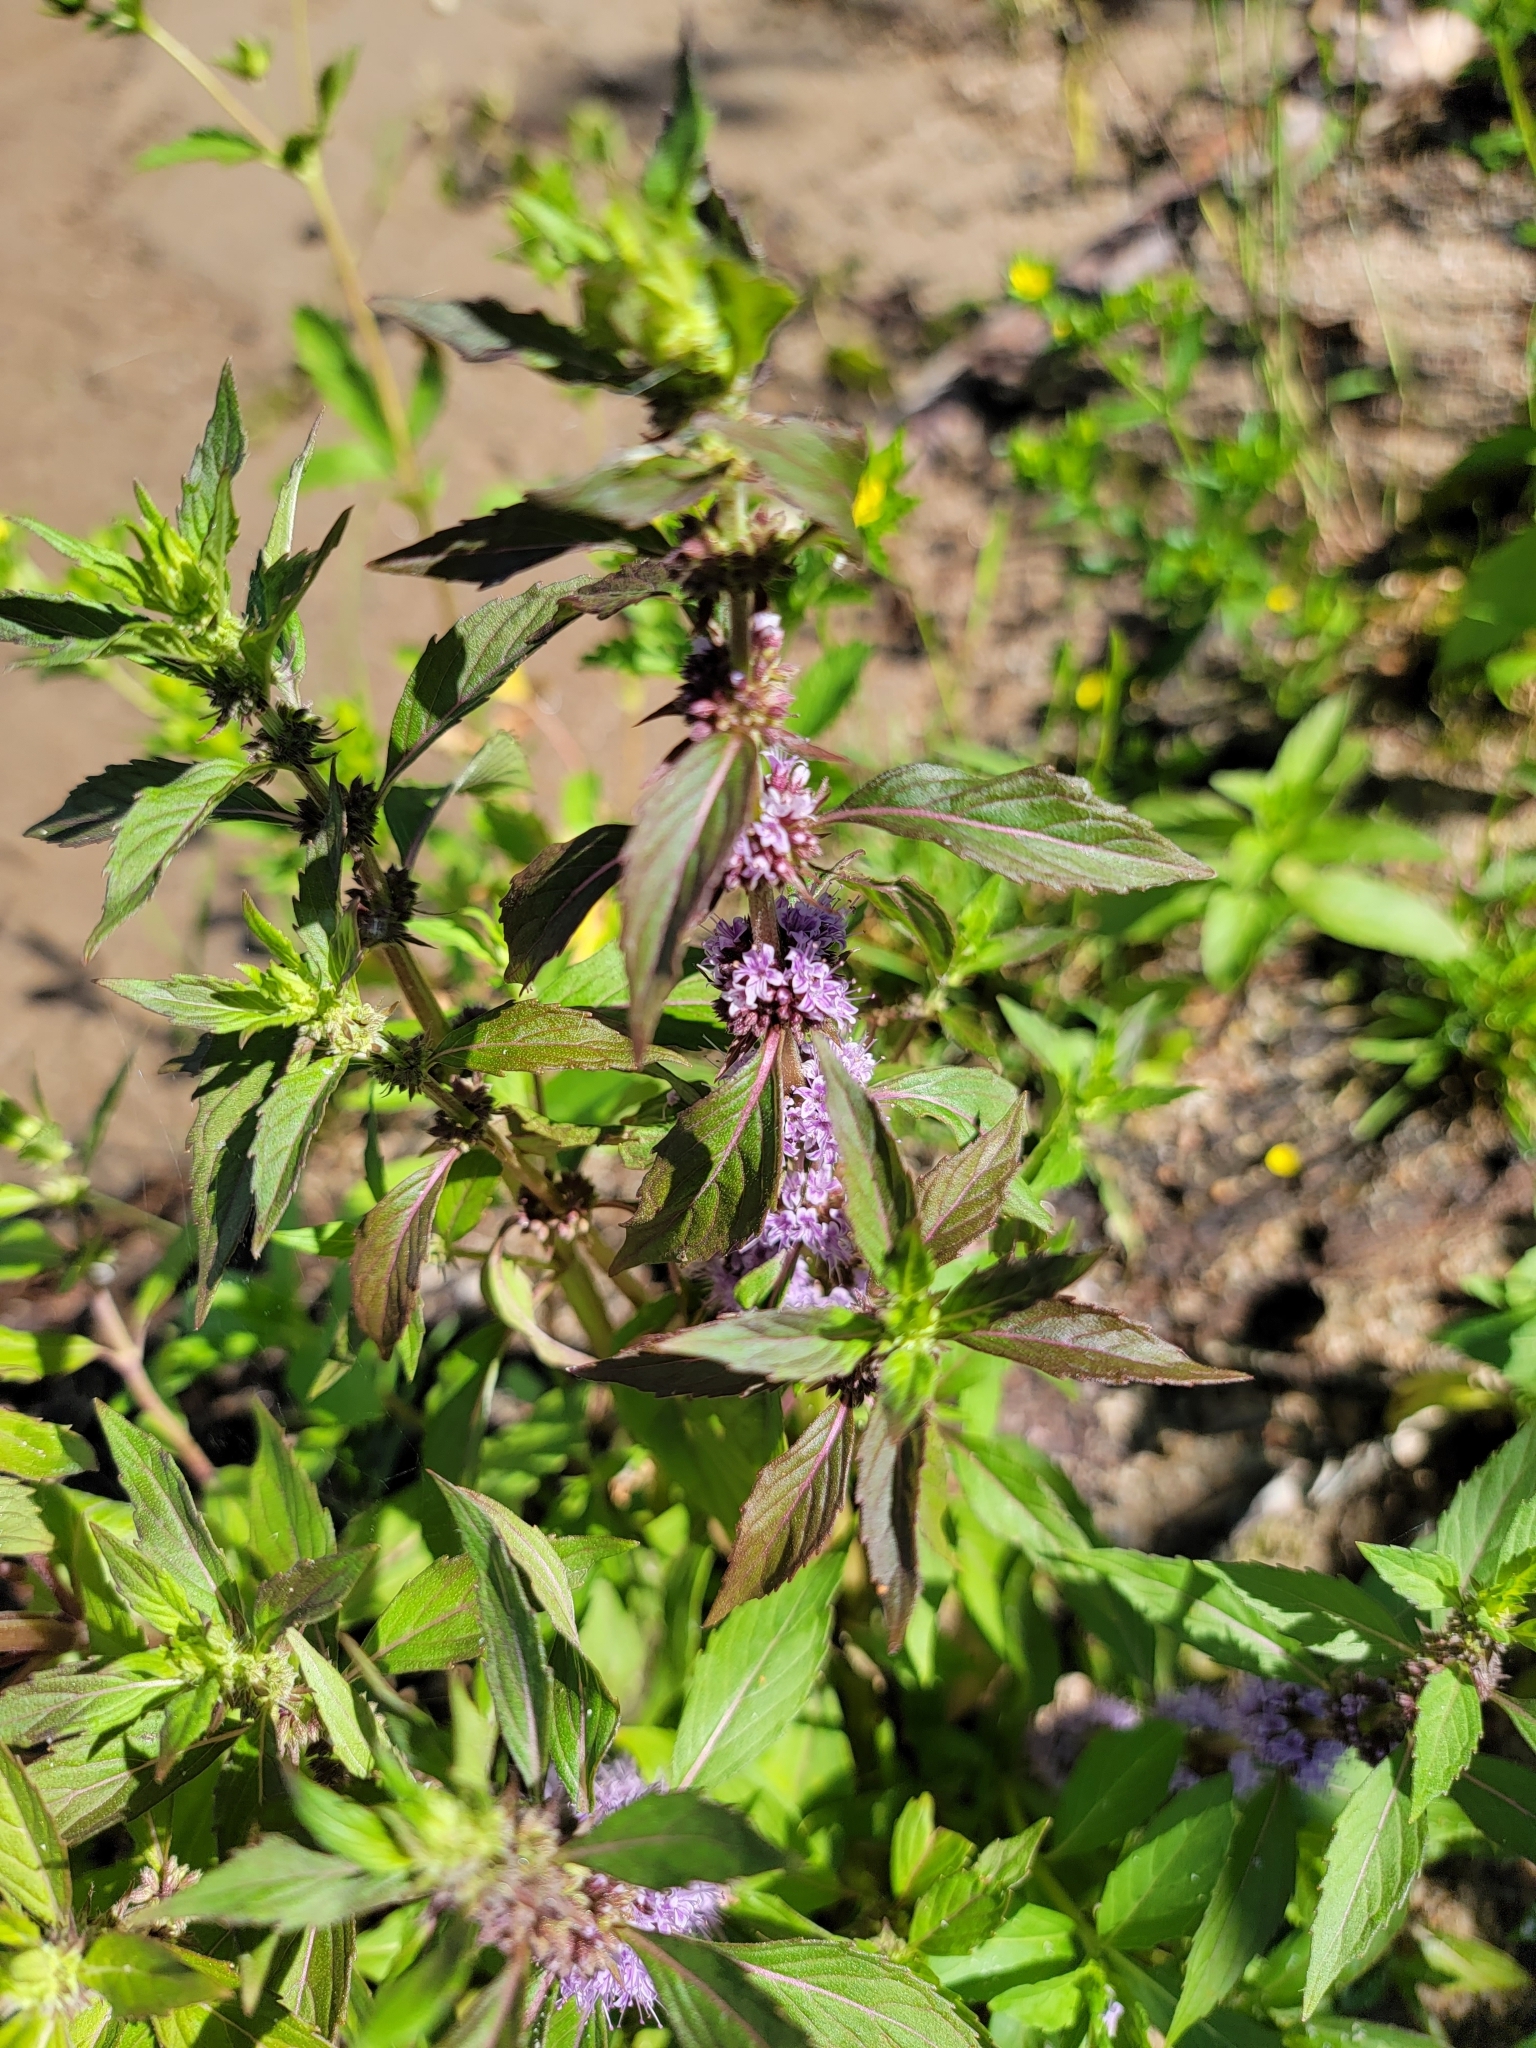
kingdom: Plantae
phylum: Tracheophyta
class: Magnoliopsida
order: Lamiales
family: Lamiaceae
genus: Mentha
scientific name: Mentha canadensis
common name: American corn mint
